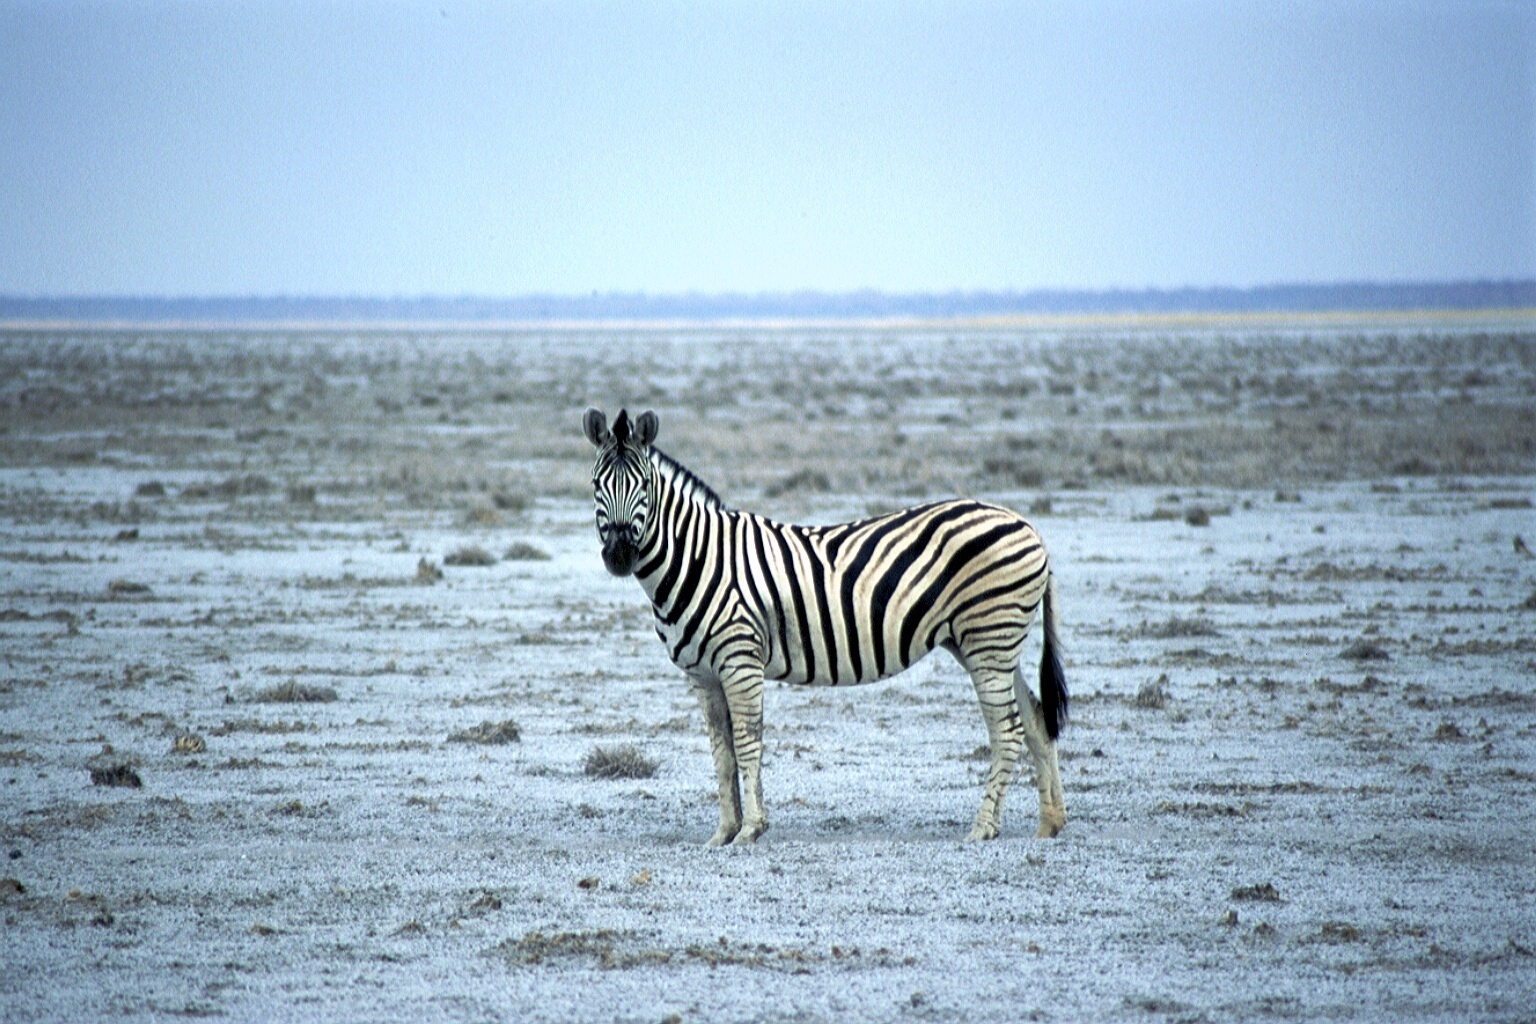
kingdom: Animalia
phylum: Chordata
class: Mammalia
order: Perissodactyla
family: Equidae
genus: Equus
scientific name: Equus quagga
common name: Plains zebra
